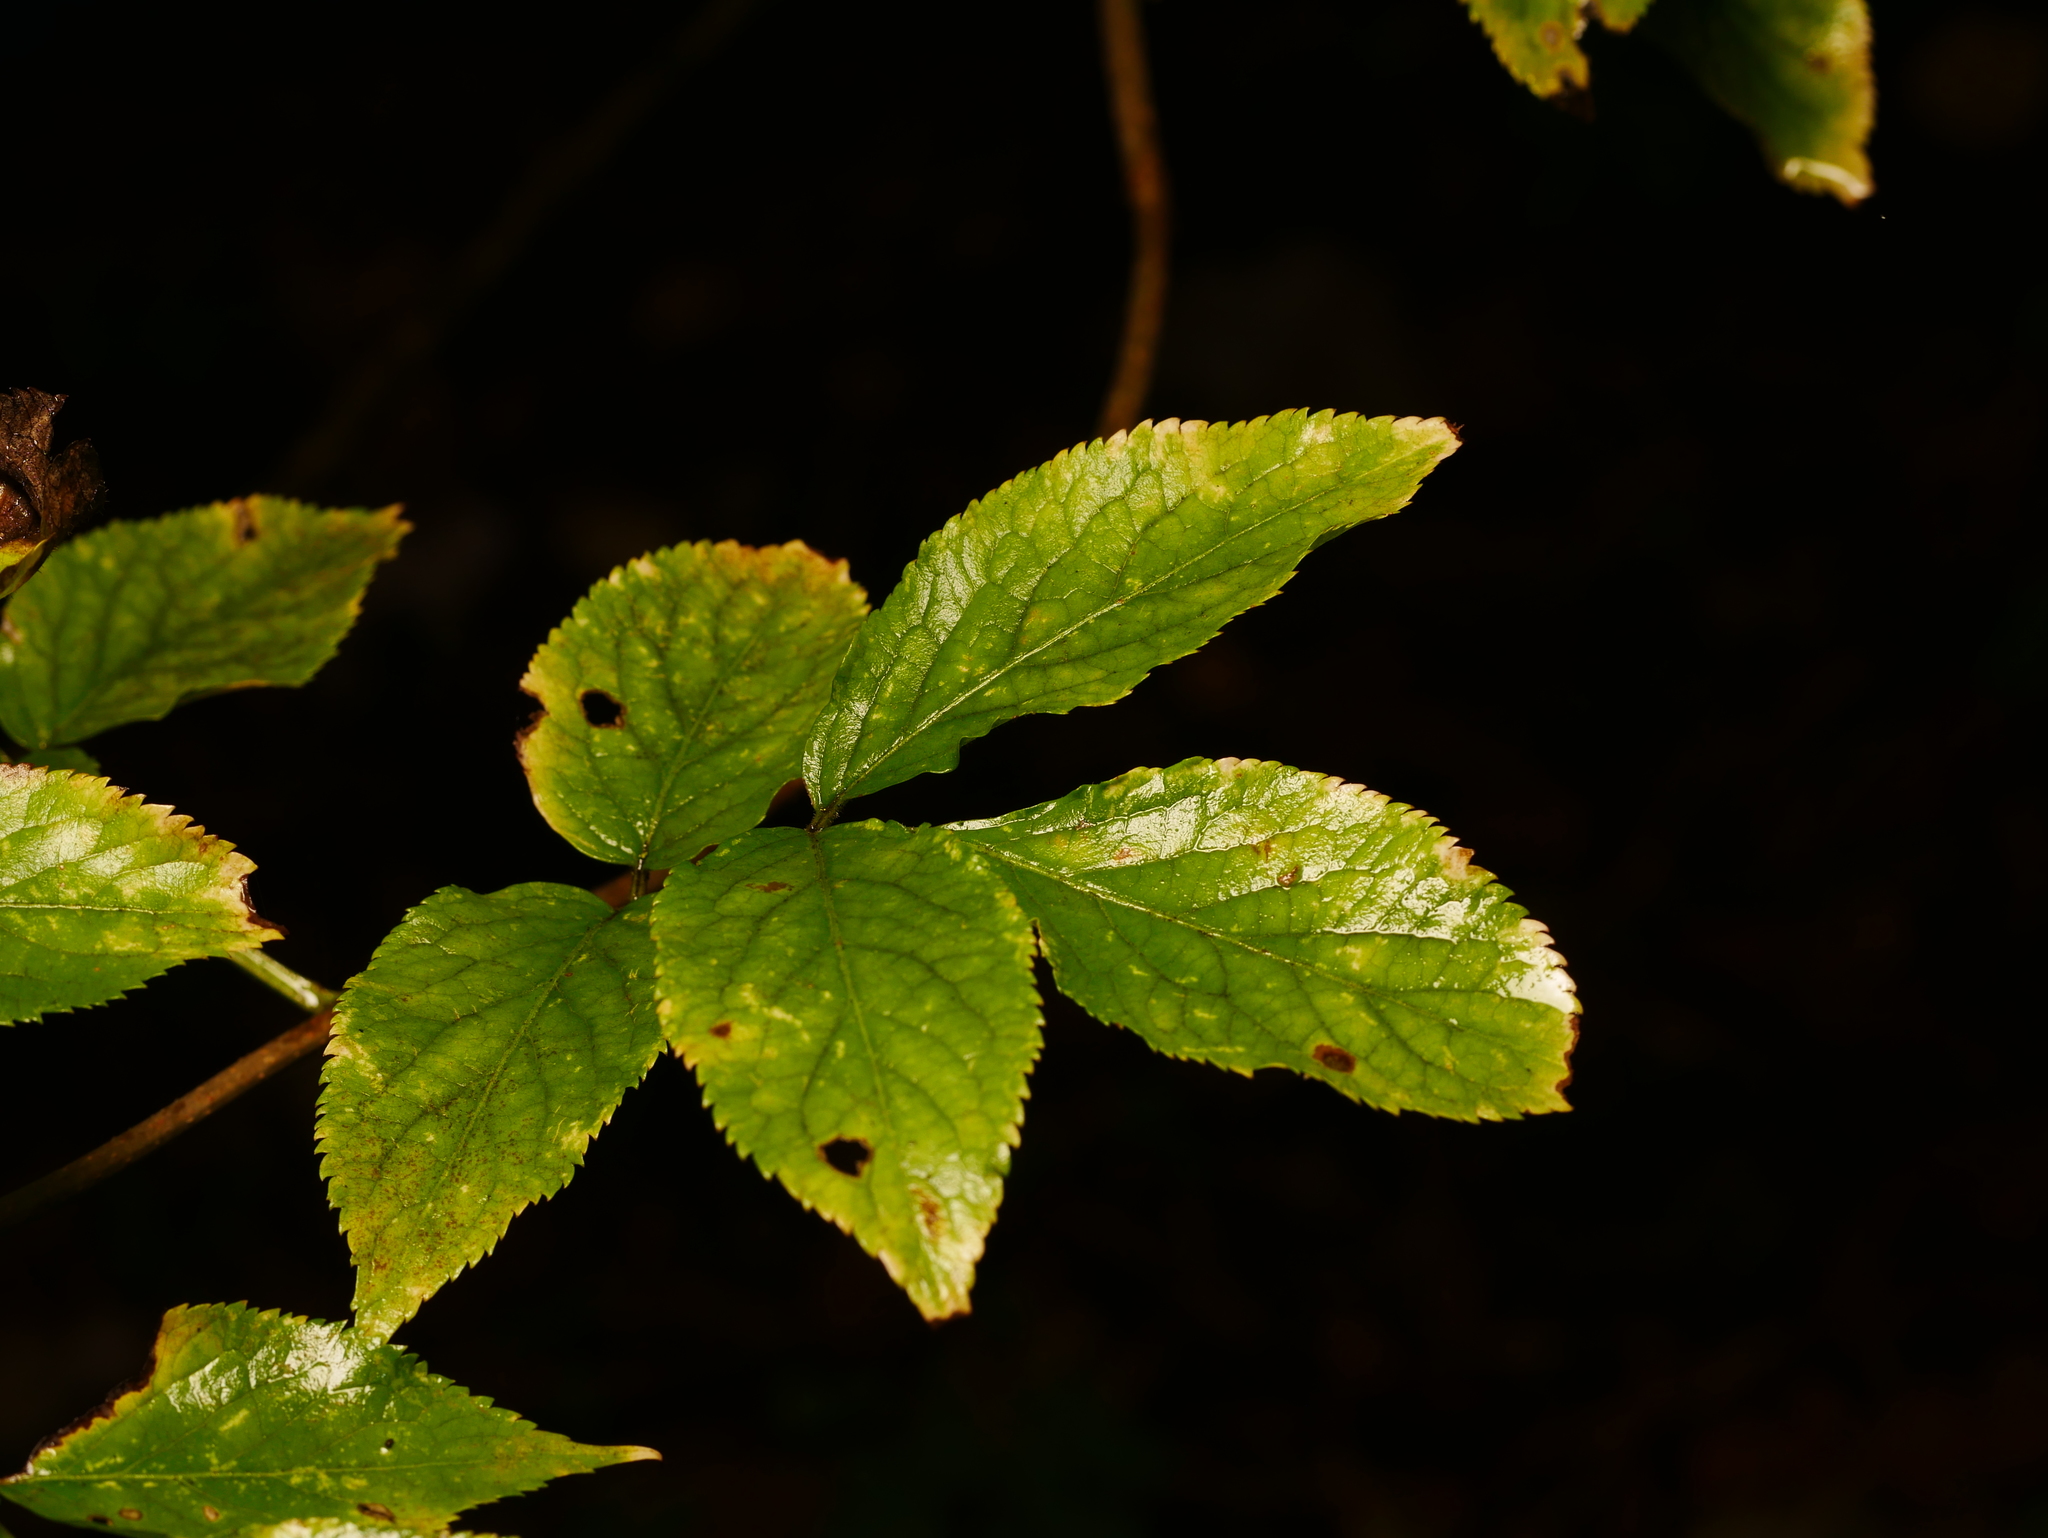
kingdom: Plantae
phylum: Tracheophyta
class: Magnoliopsida
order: Dipsacales
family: Viburnaceae
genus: Sambucus
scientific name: Sambucus nigra
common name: Elder
